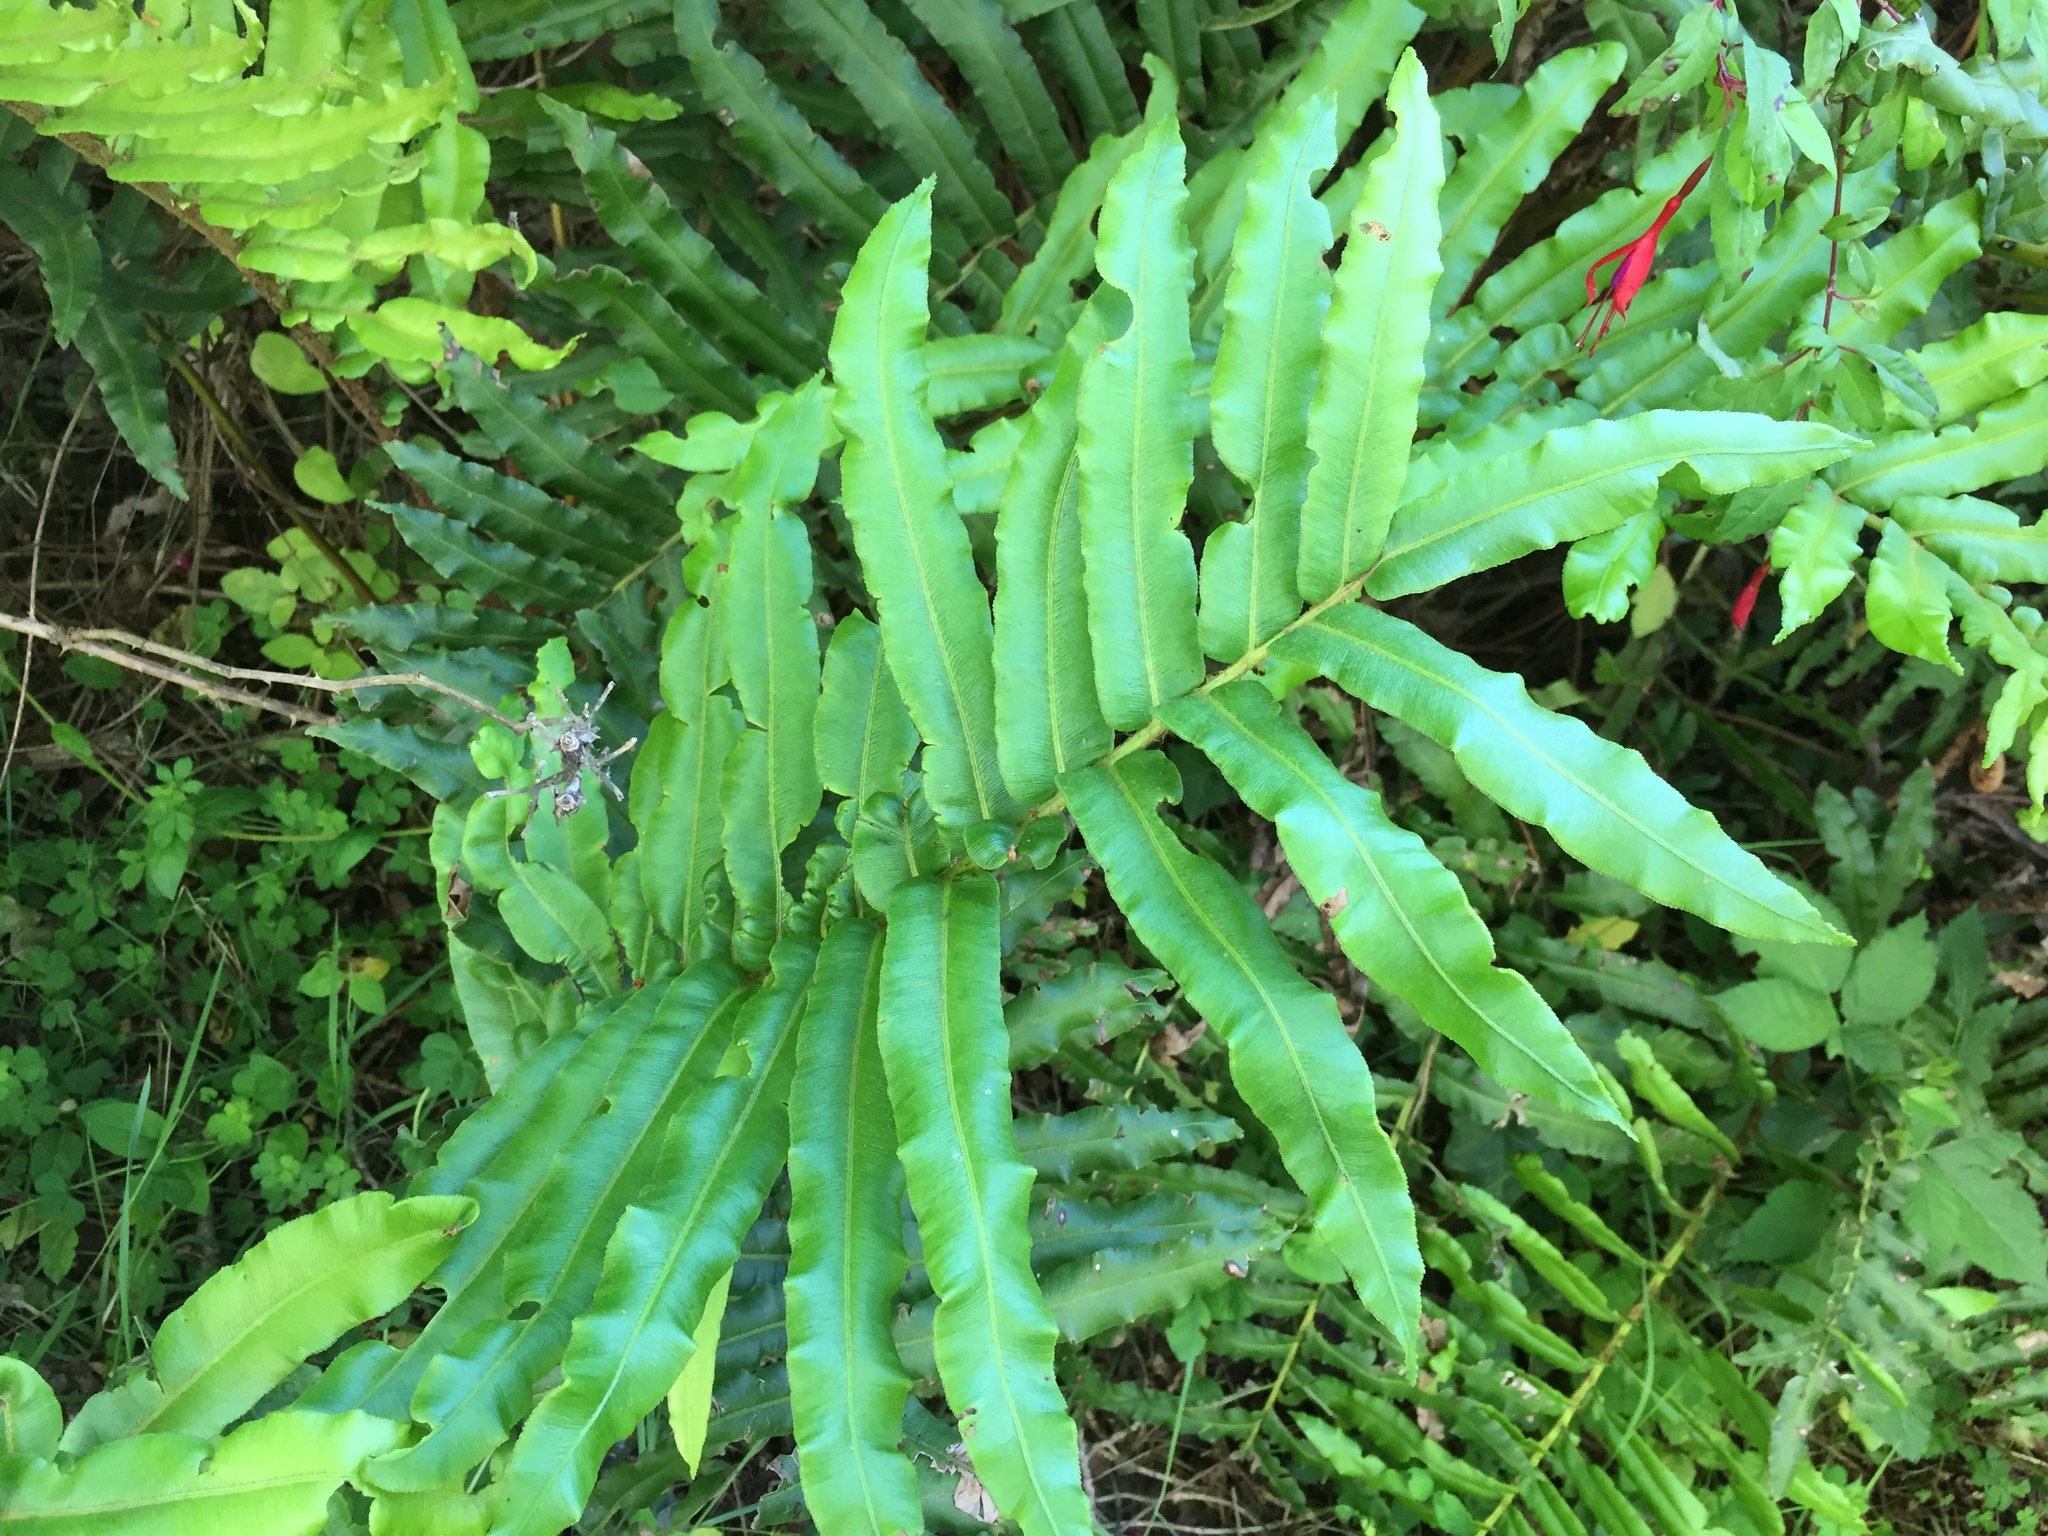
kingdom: Plantae
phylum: Tracheophyta
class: Polypodiopsida
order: Polypodiales
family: Blechnaceae
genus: Parablechnum
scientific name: Parablechnum chilense
